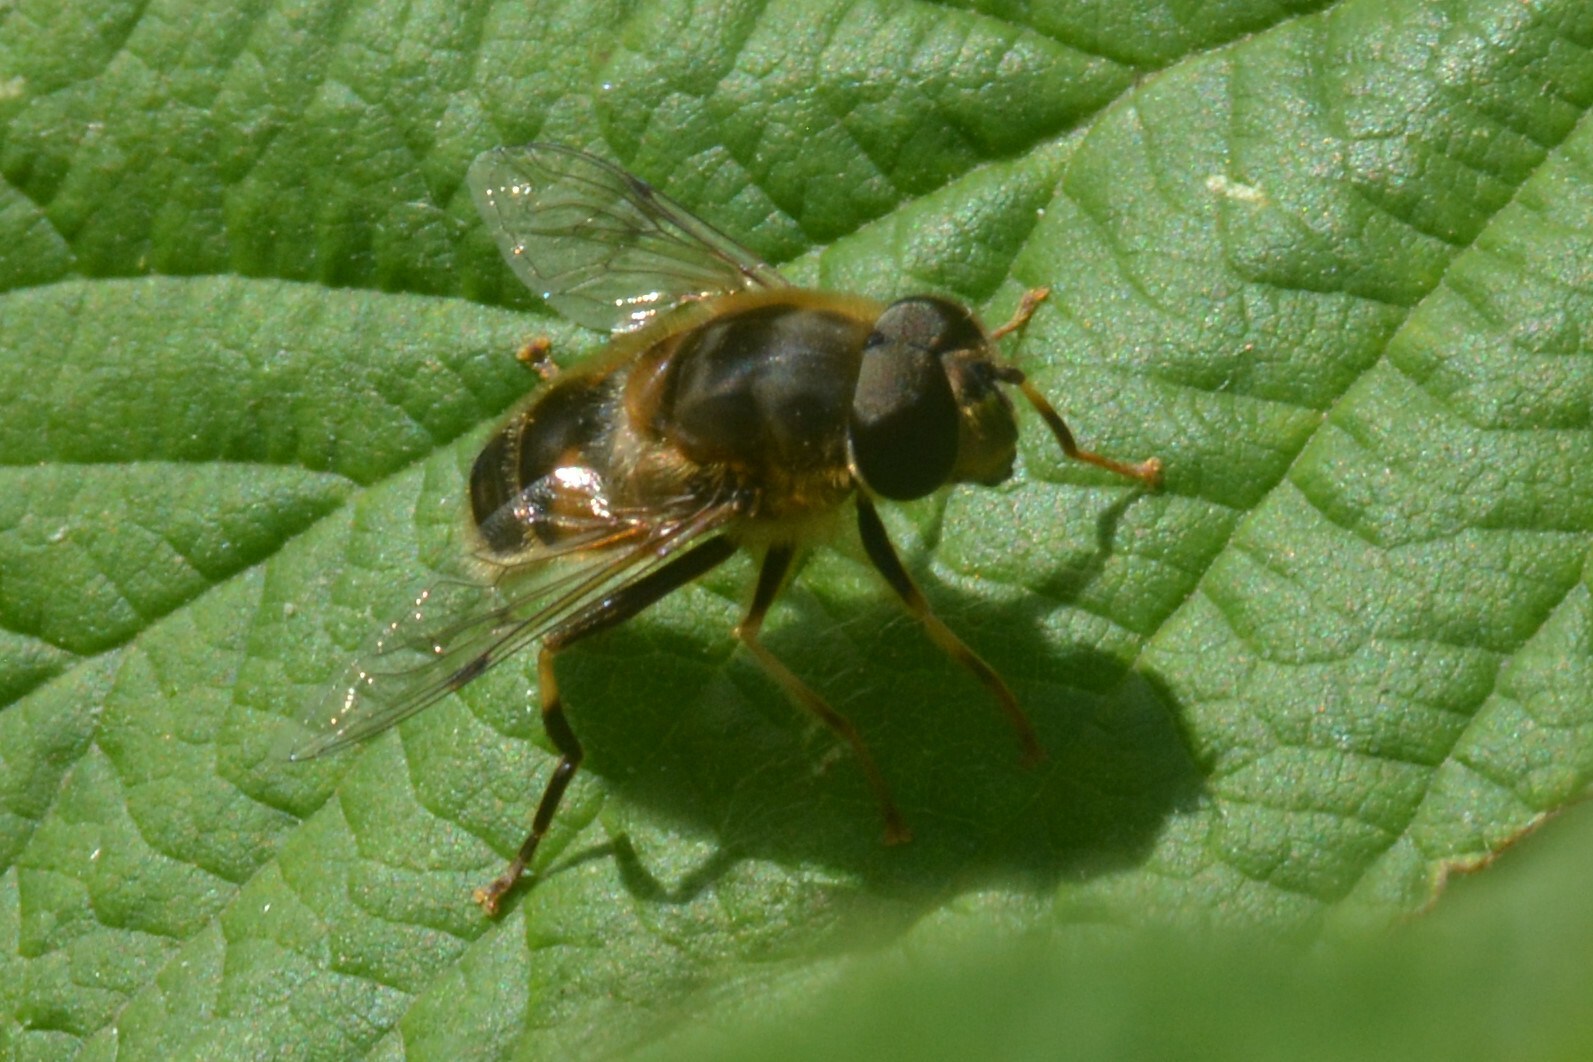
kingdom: Animalia
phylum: Arthropoda
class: Insecta
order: Diptera
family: Syrphidae
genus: Eristalis
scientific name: Eristalis pertinax
